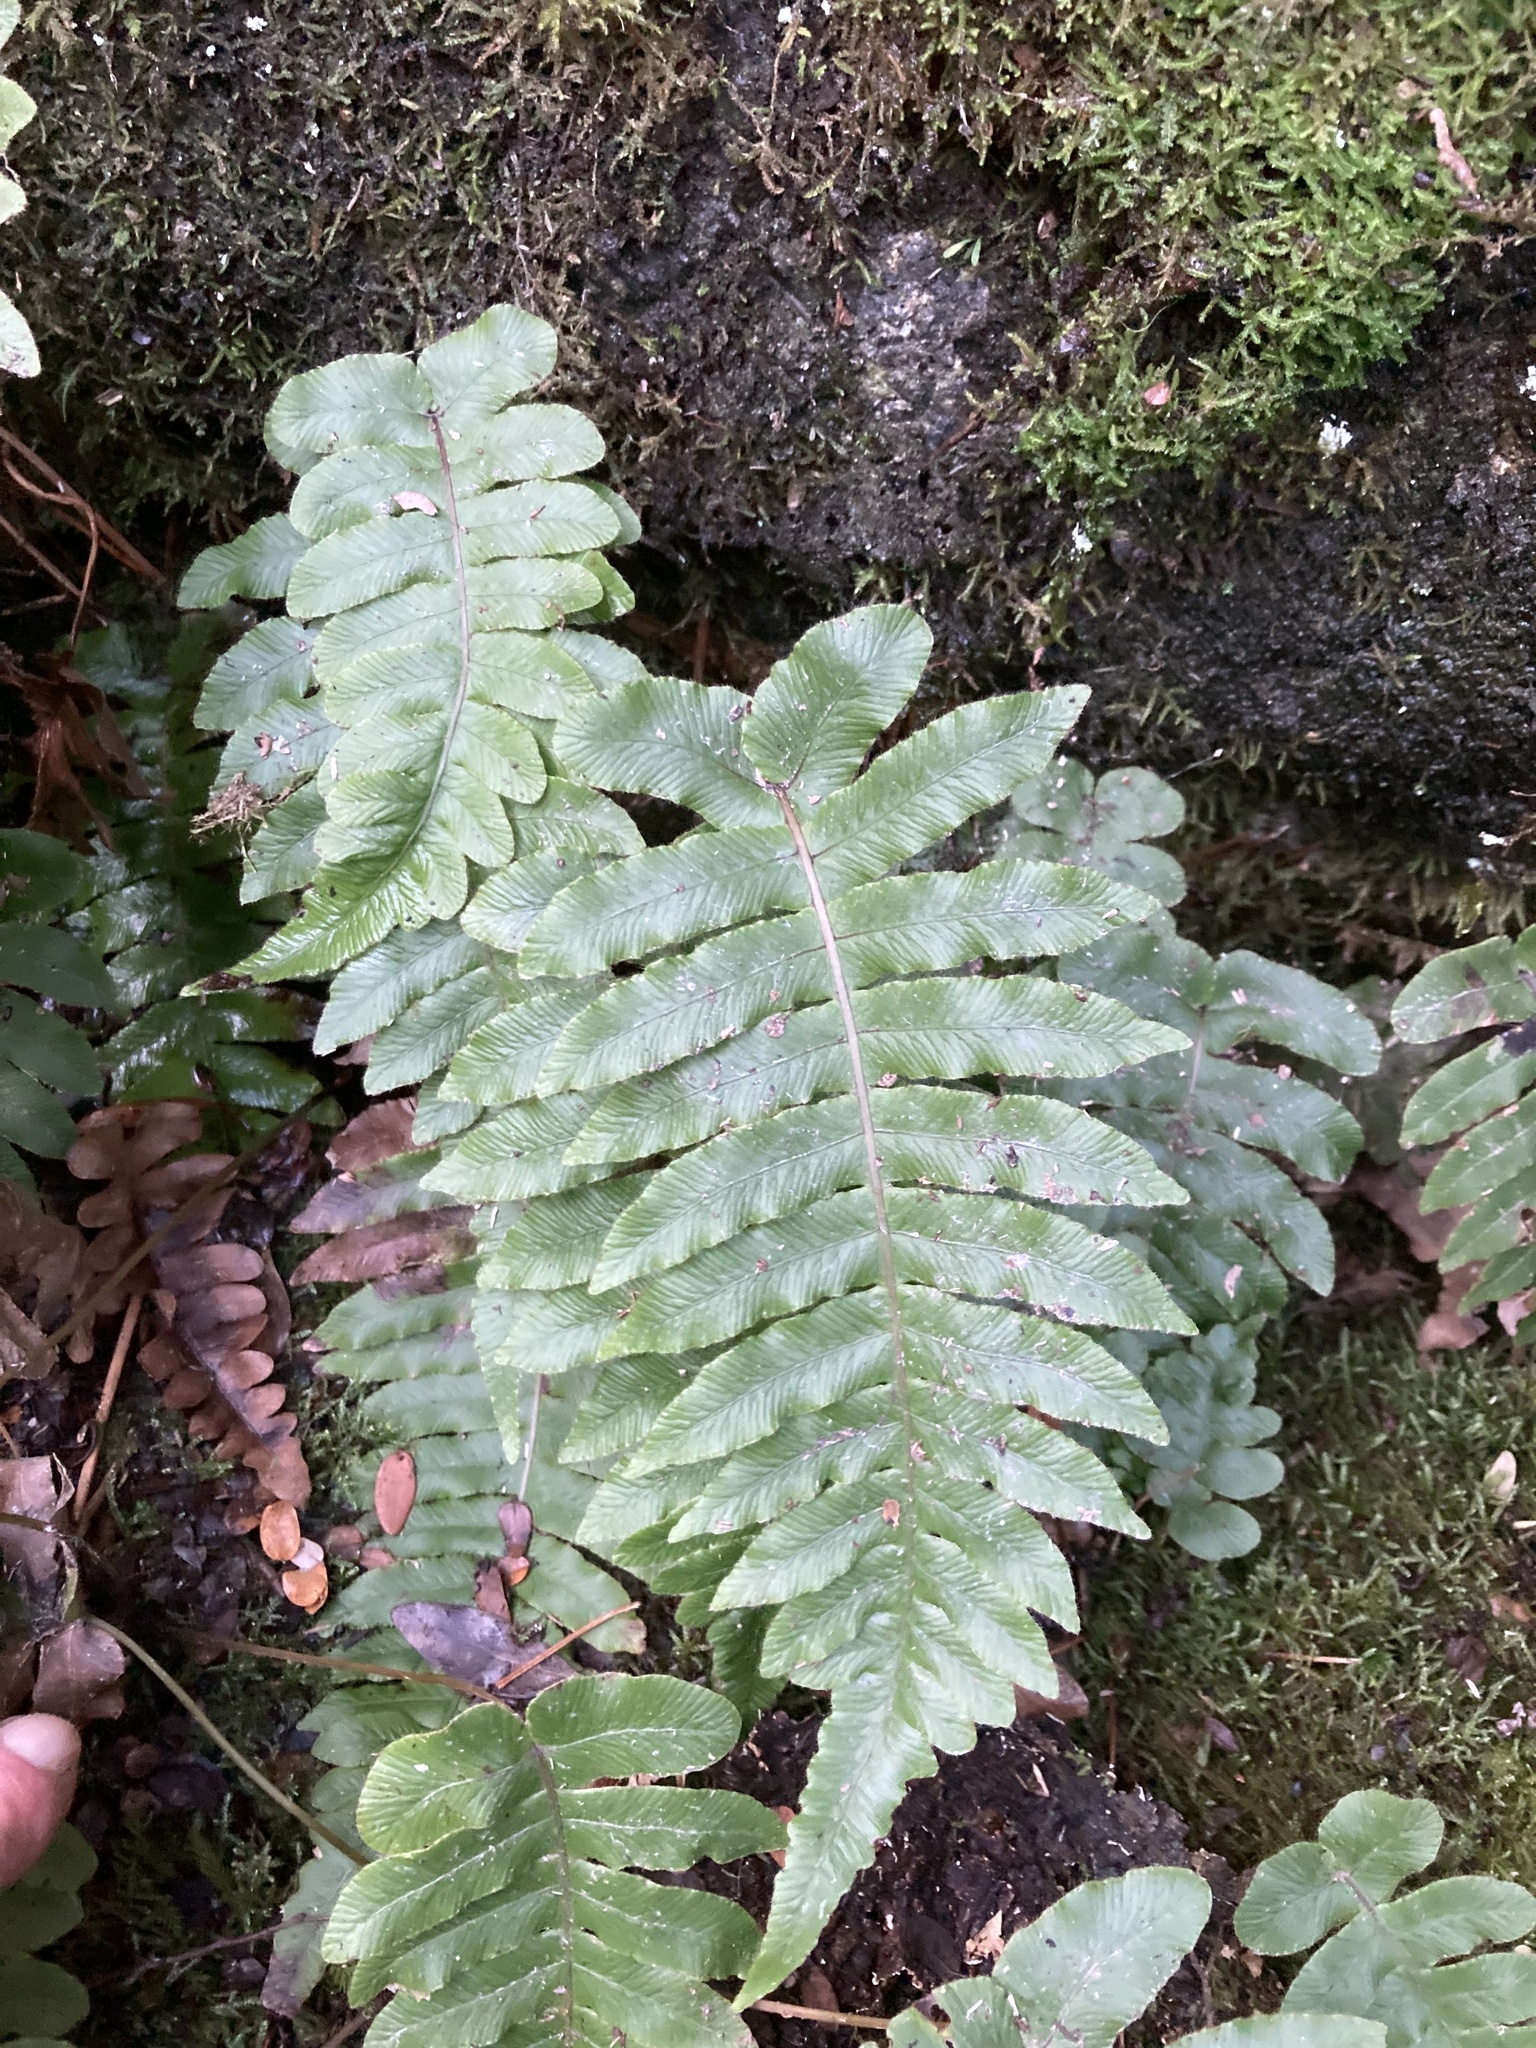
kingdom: Plantae
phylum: Tracheophyta
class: Polypodiopsida
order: Polypodiales
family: Blechnaceae
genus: Cranfillia
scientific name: Cranfillia deltoides
